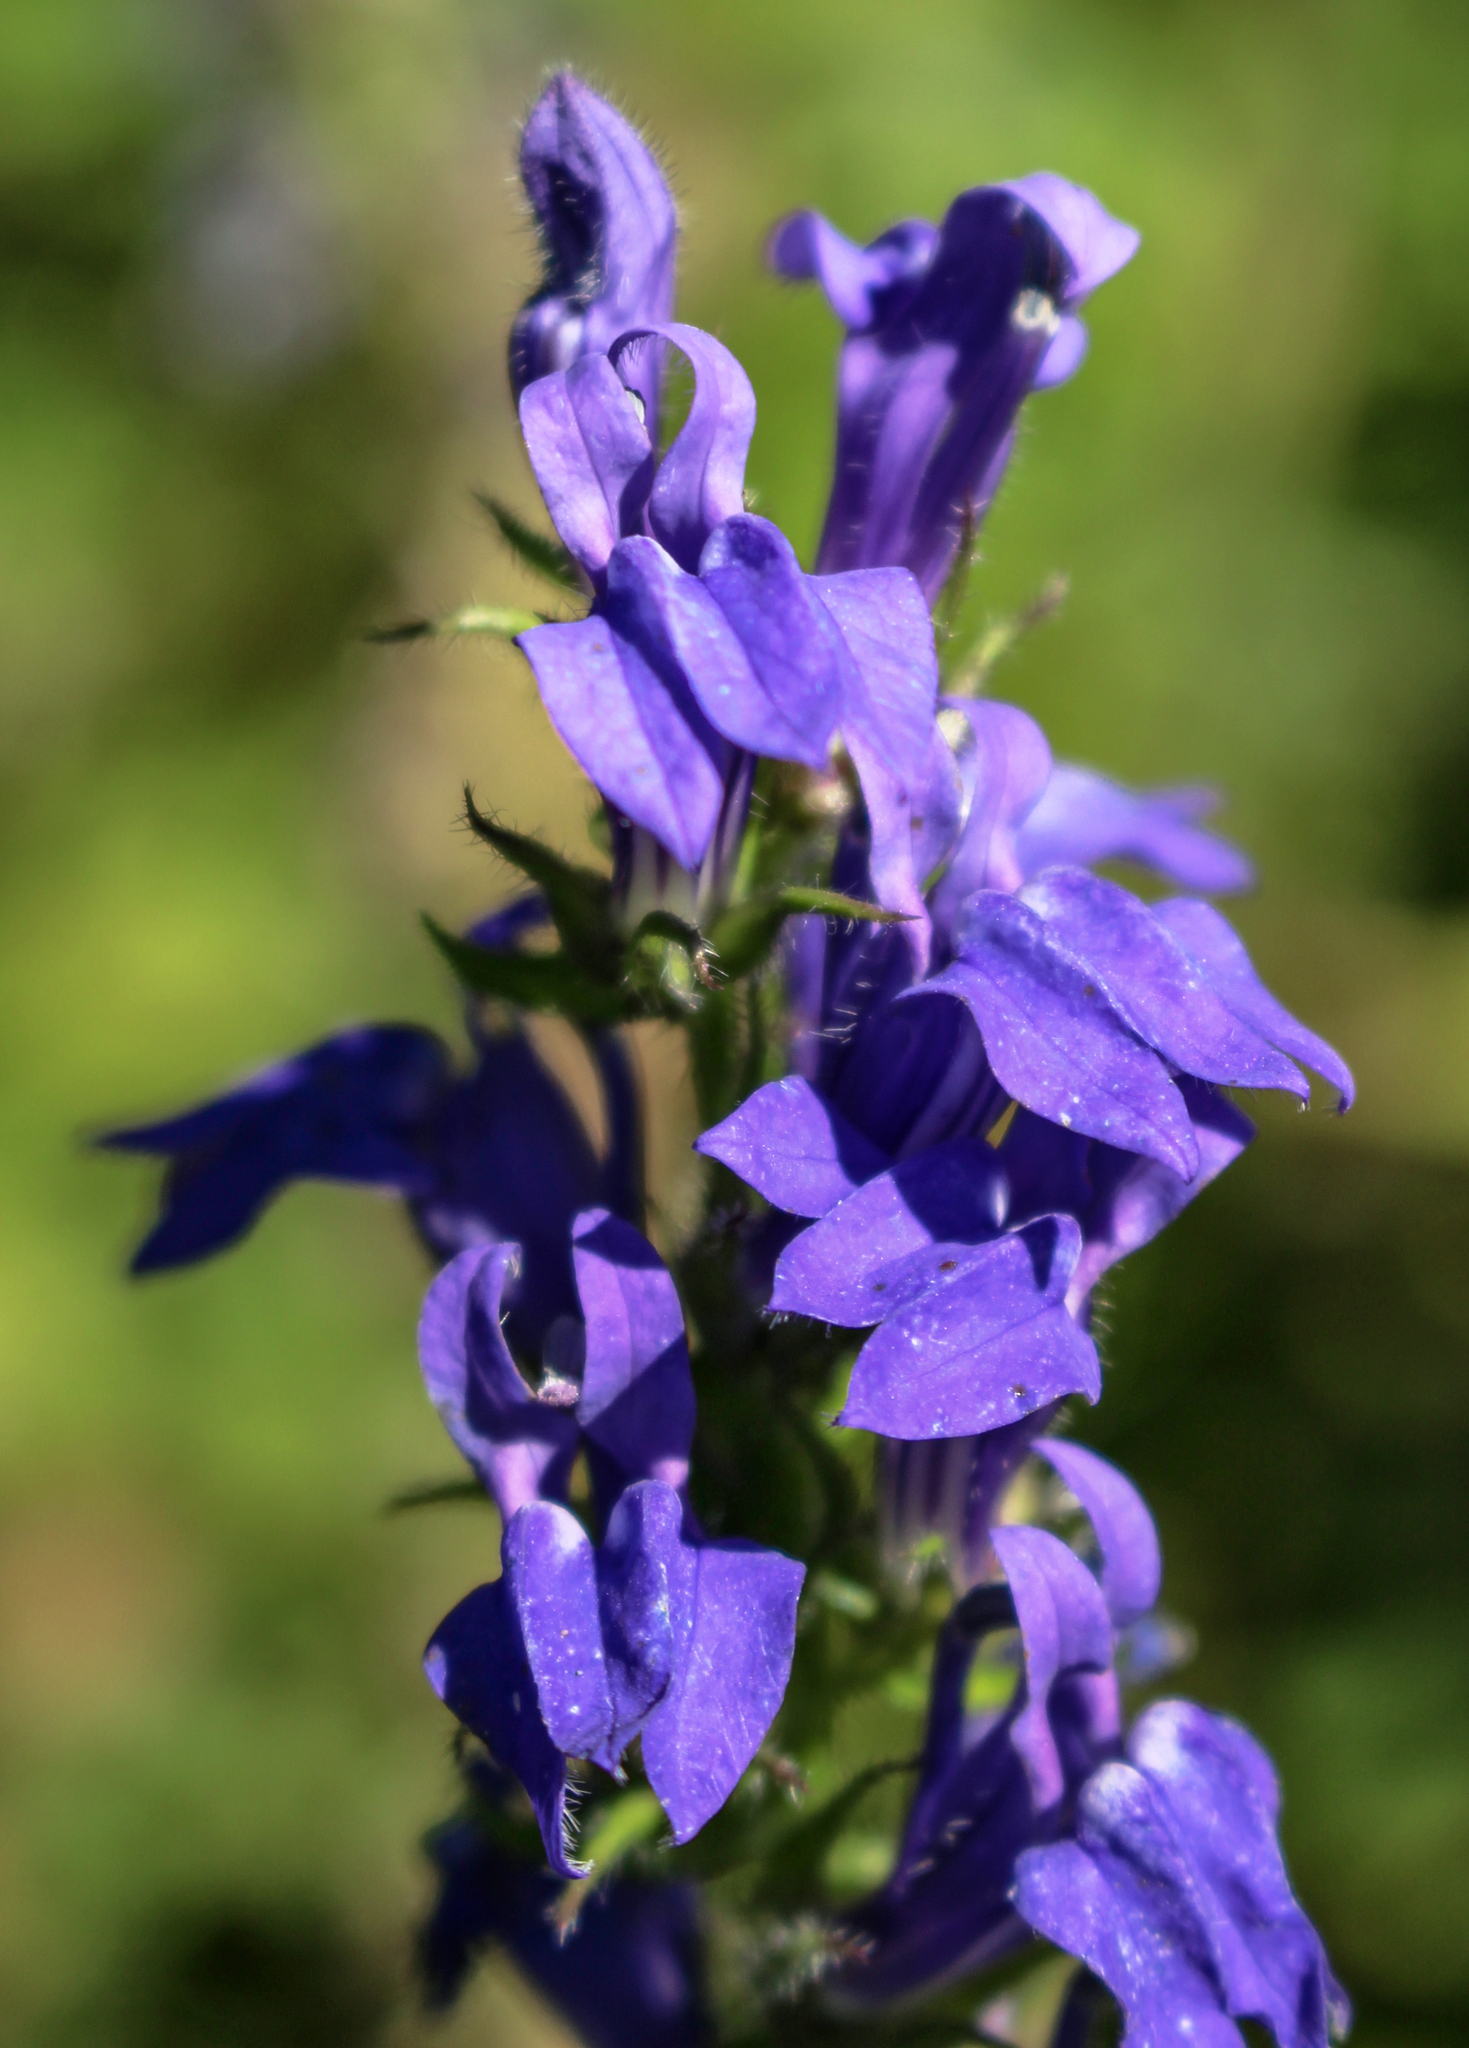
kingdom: Plantae
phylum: Tracheophyta
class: Magnoliopsida
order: Asterales
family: Campanulaceae
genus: Lobelia
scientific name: Lobelia siphilitica
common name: Great lobelia
